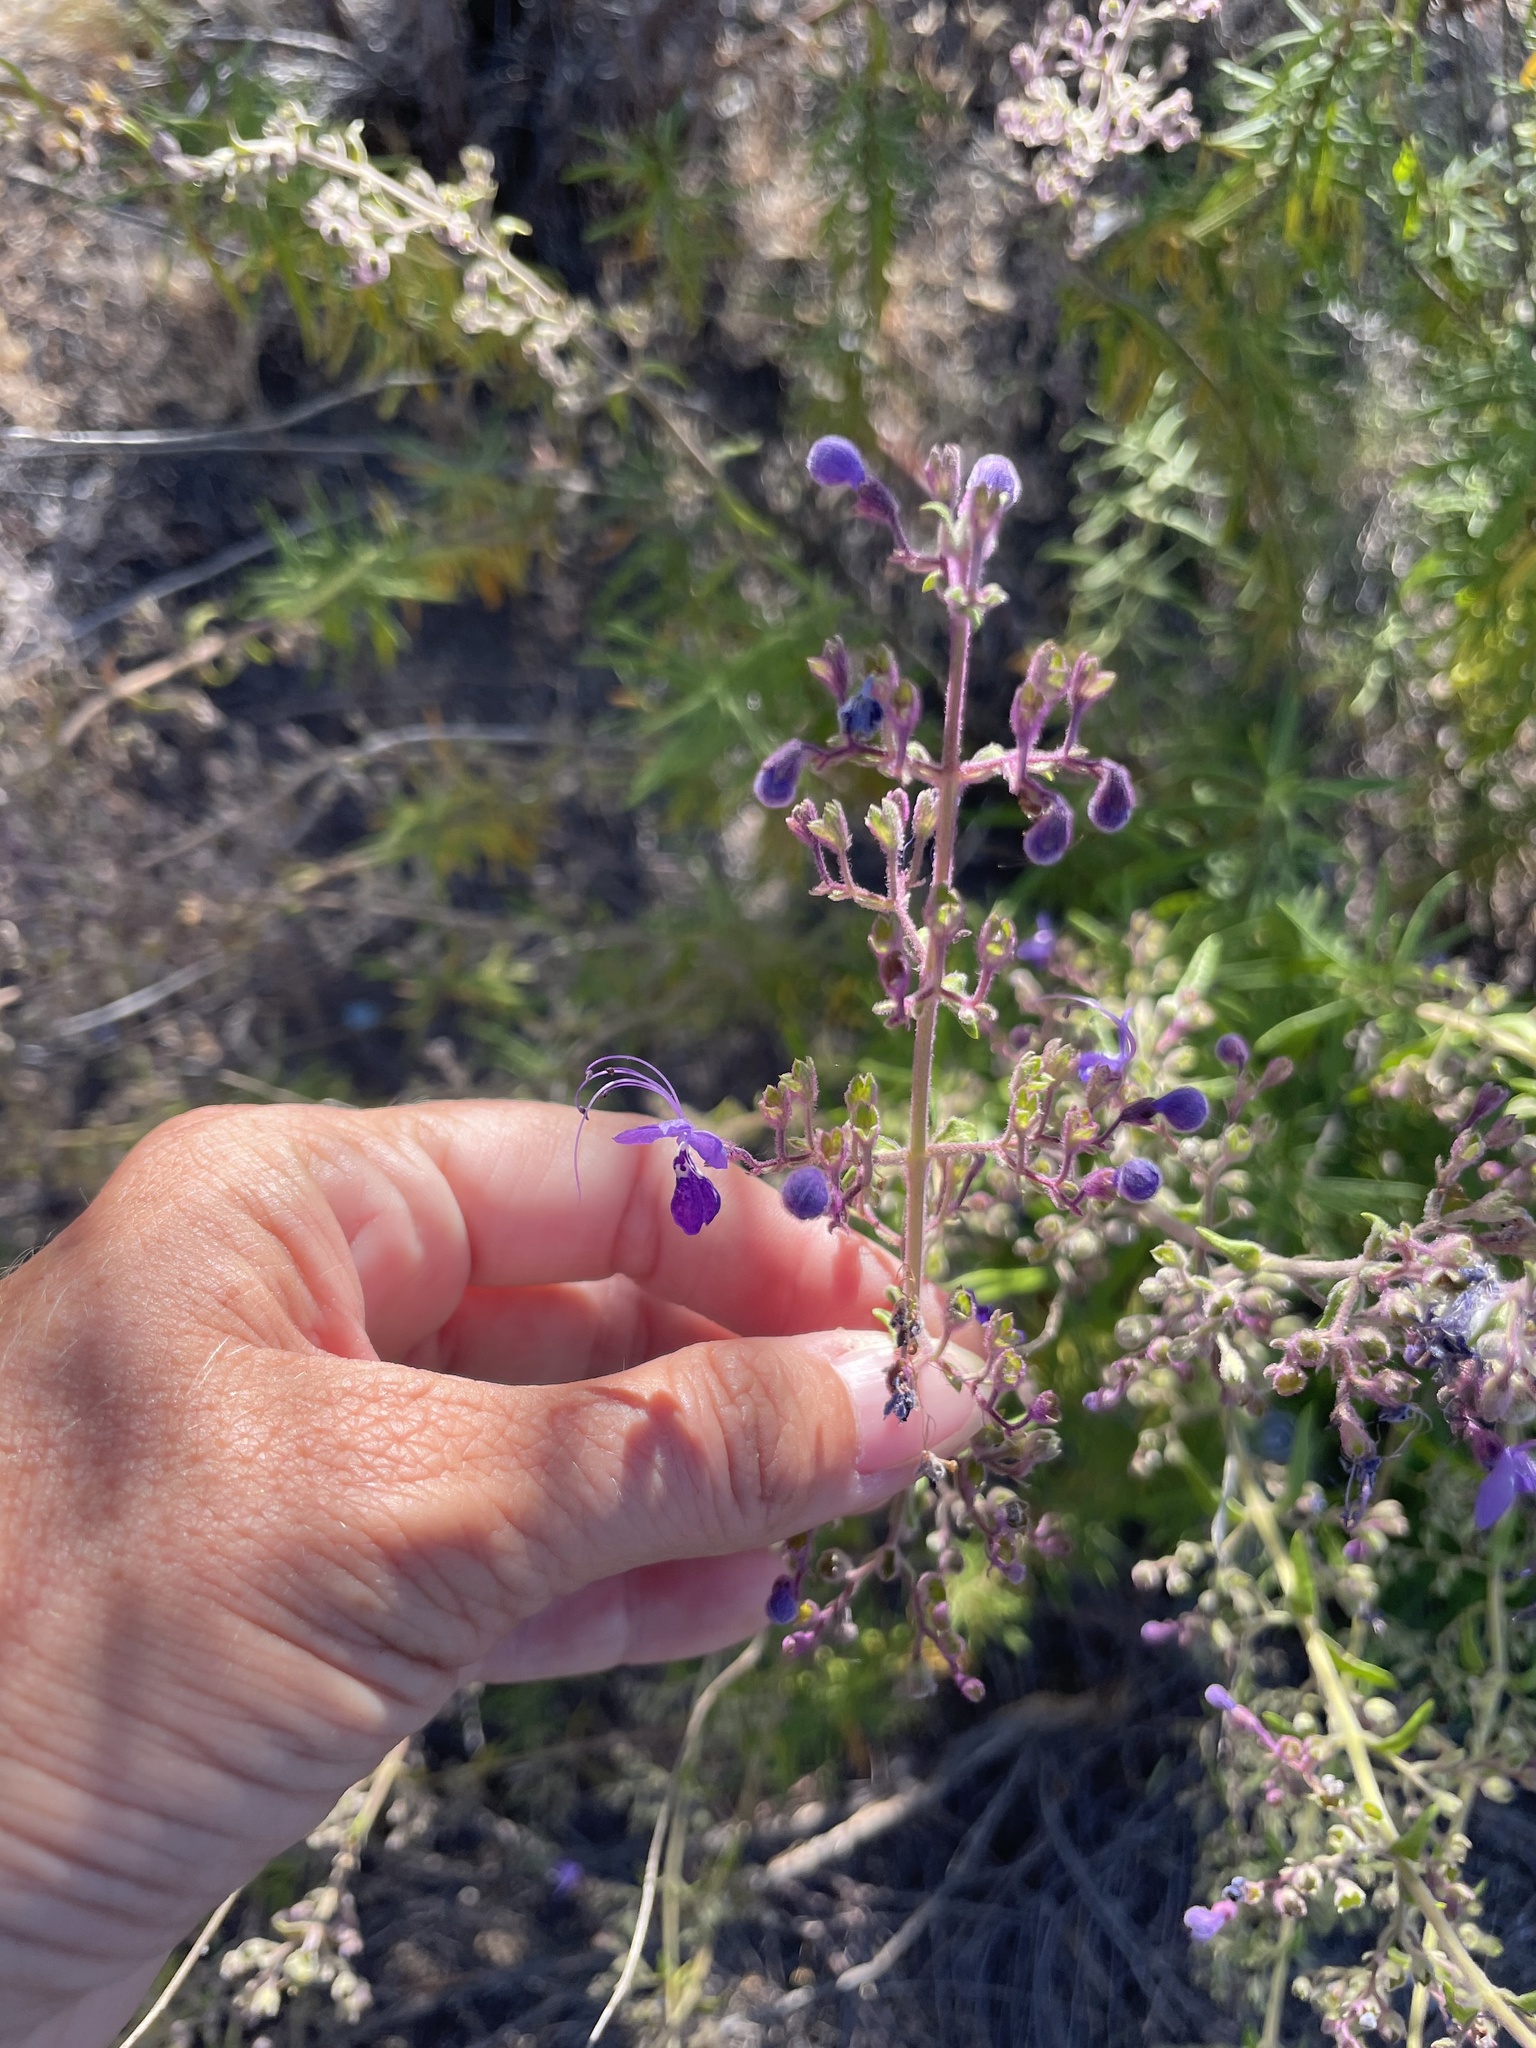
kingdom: Plantae
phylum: Tracheophyta
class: Magnoliopsida
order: Lamiales
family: Lamiaceae
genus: Trichostema
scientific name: Trichostema parishii
